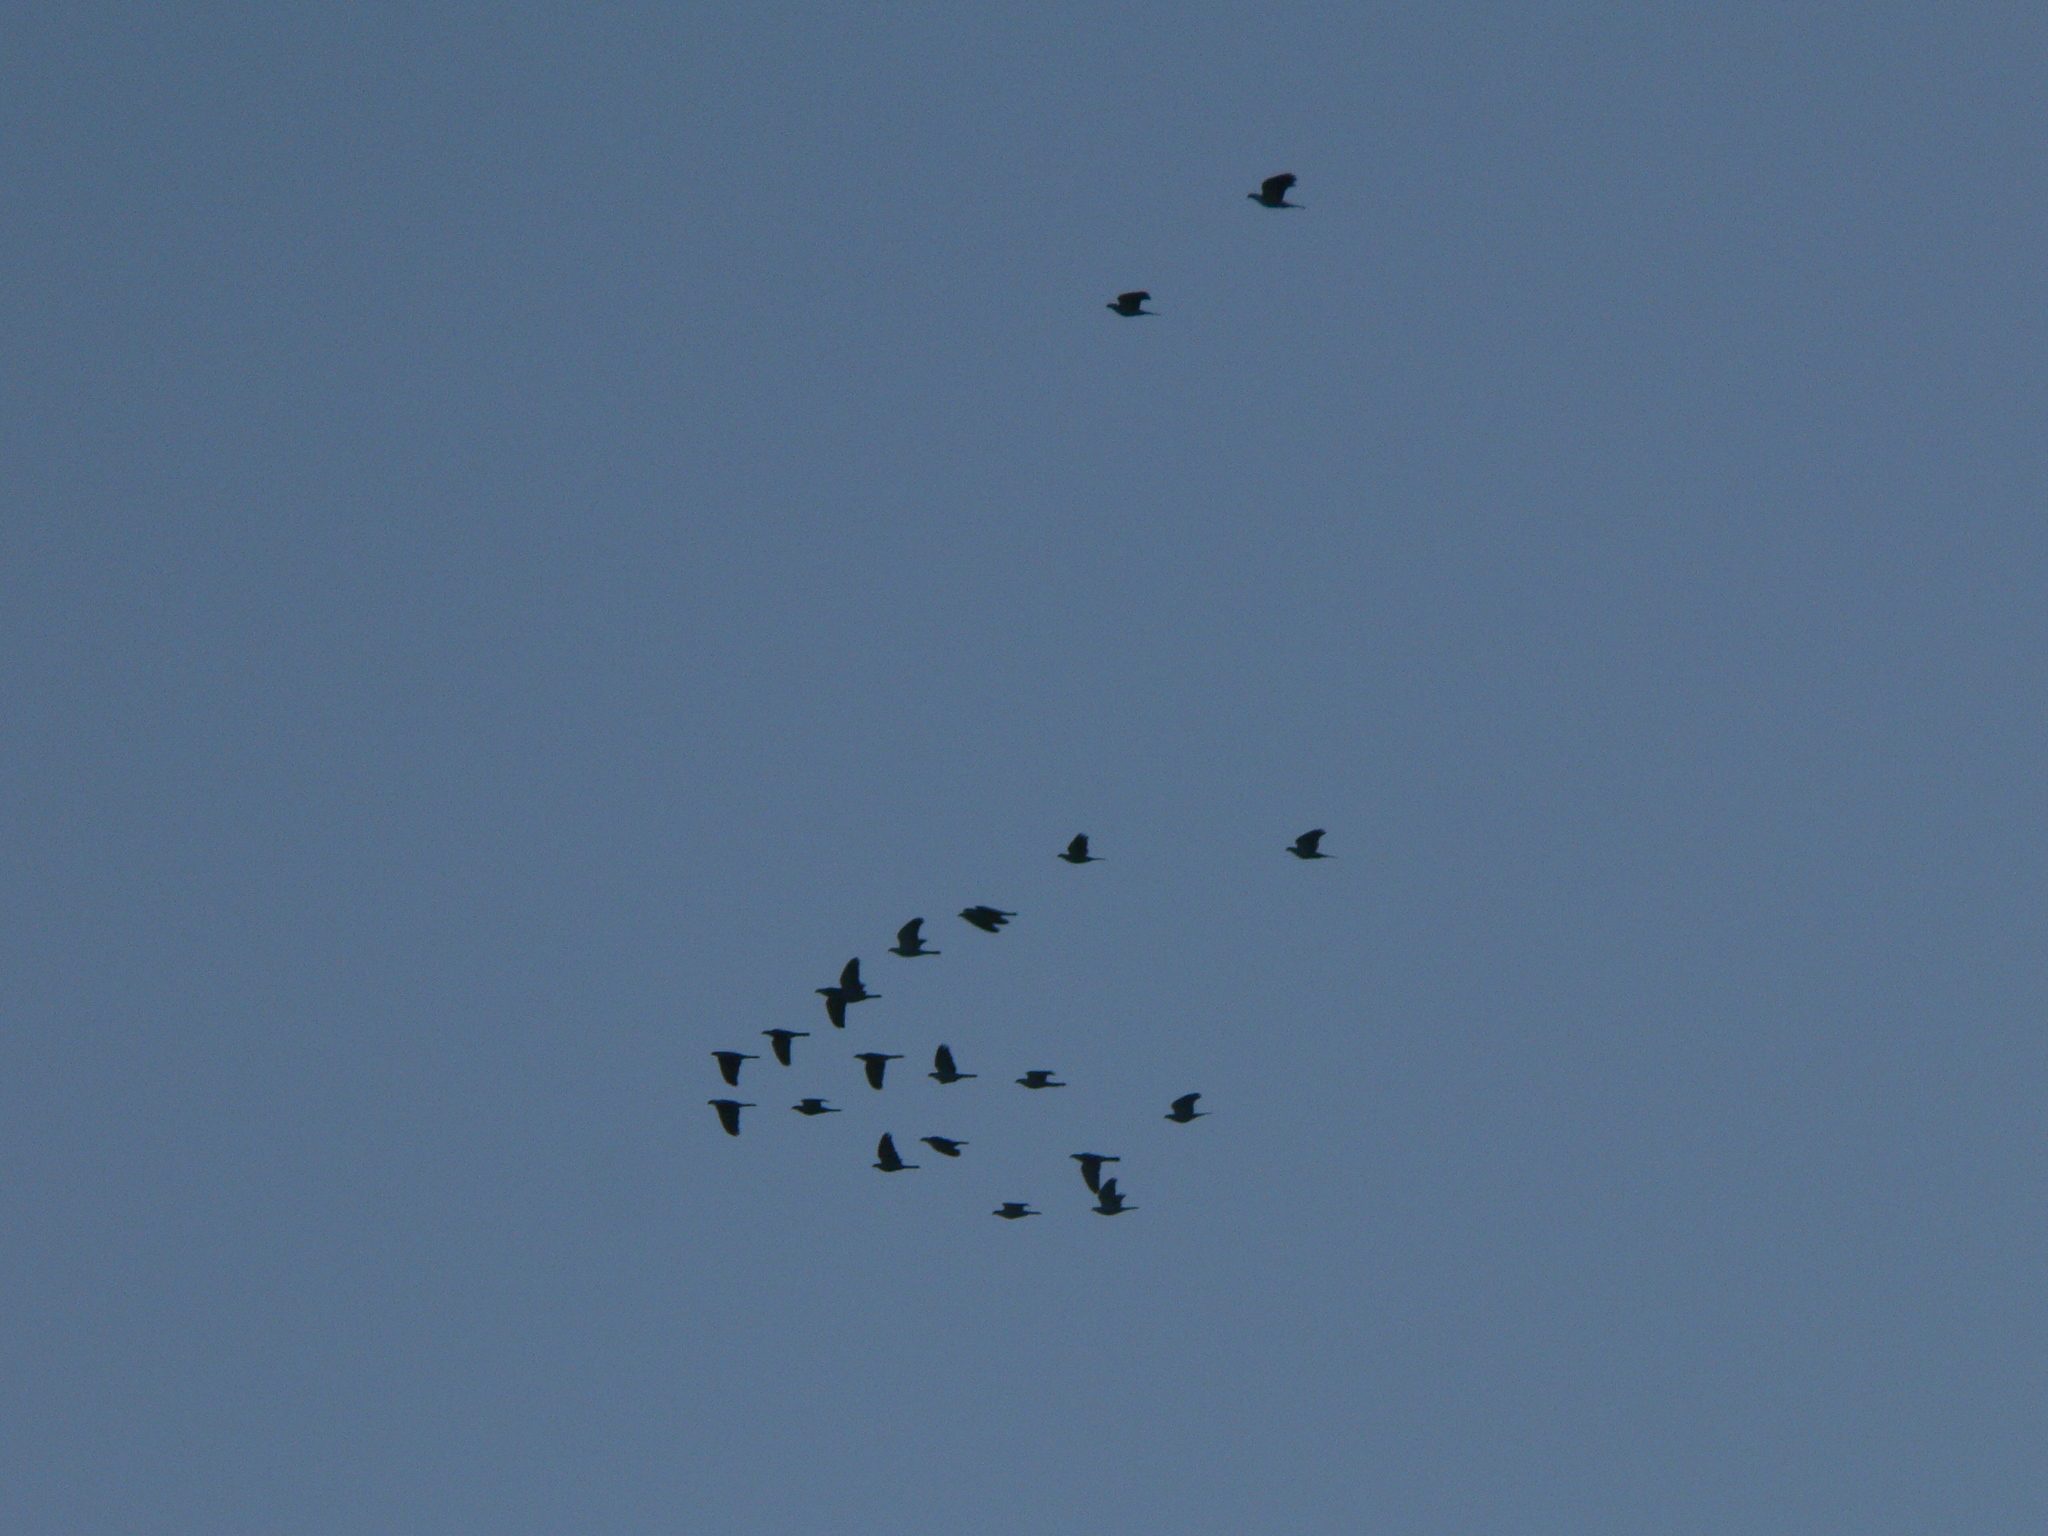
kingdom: Animalia
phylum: Chordata
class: Aves
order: Psittaciformes
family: Cacatuidae
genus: Zanda
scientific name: Zanda funerea
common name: Yellow-tailed black-cockatoo
